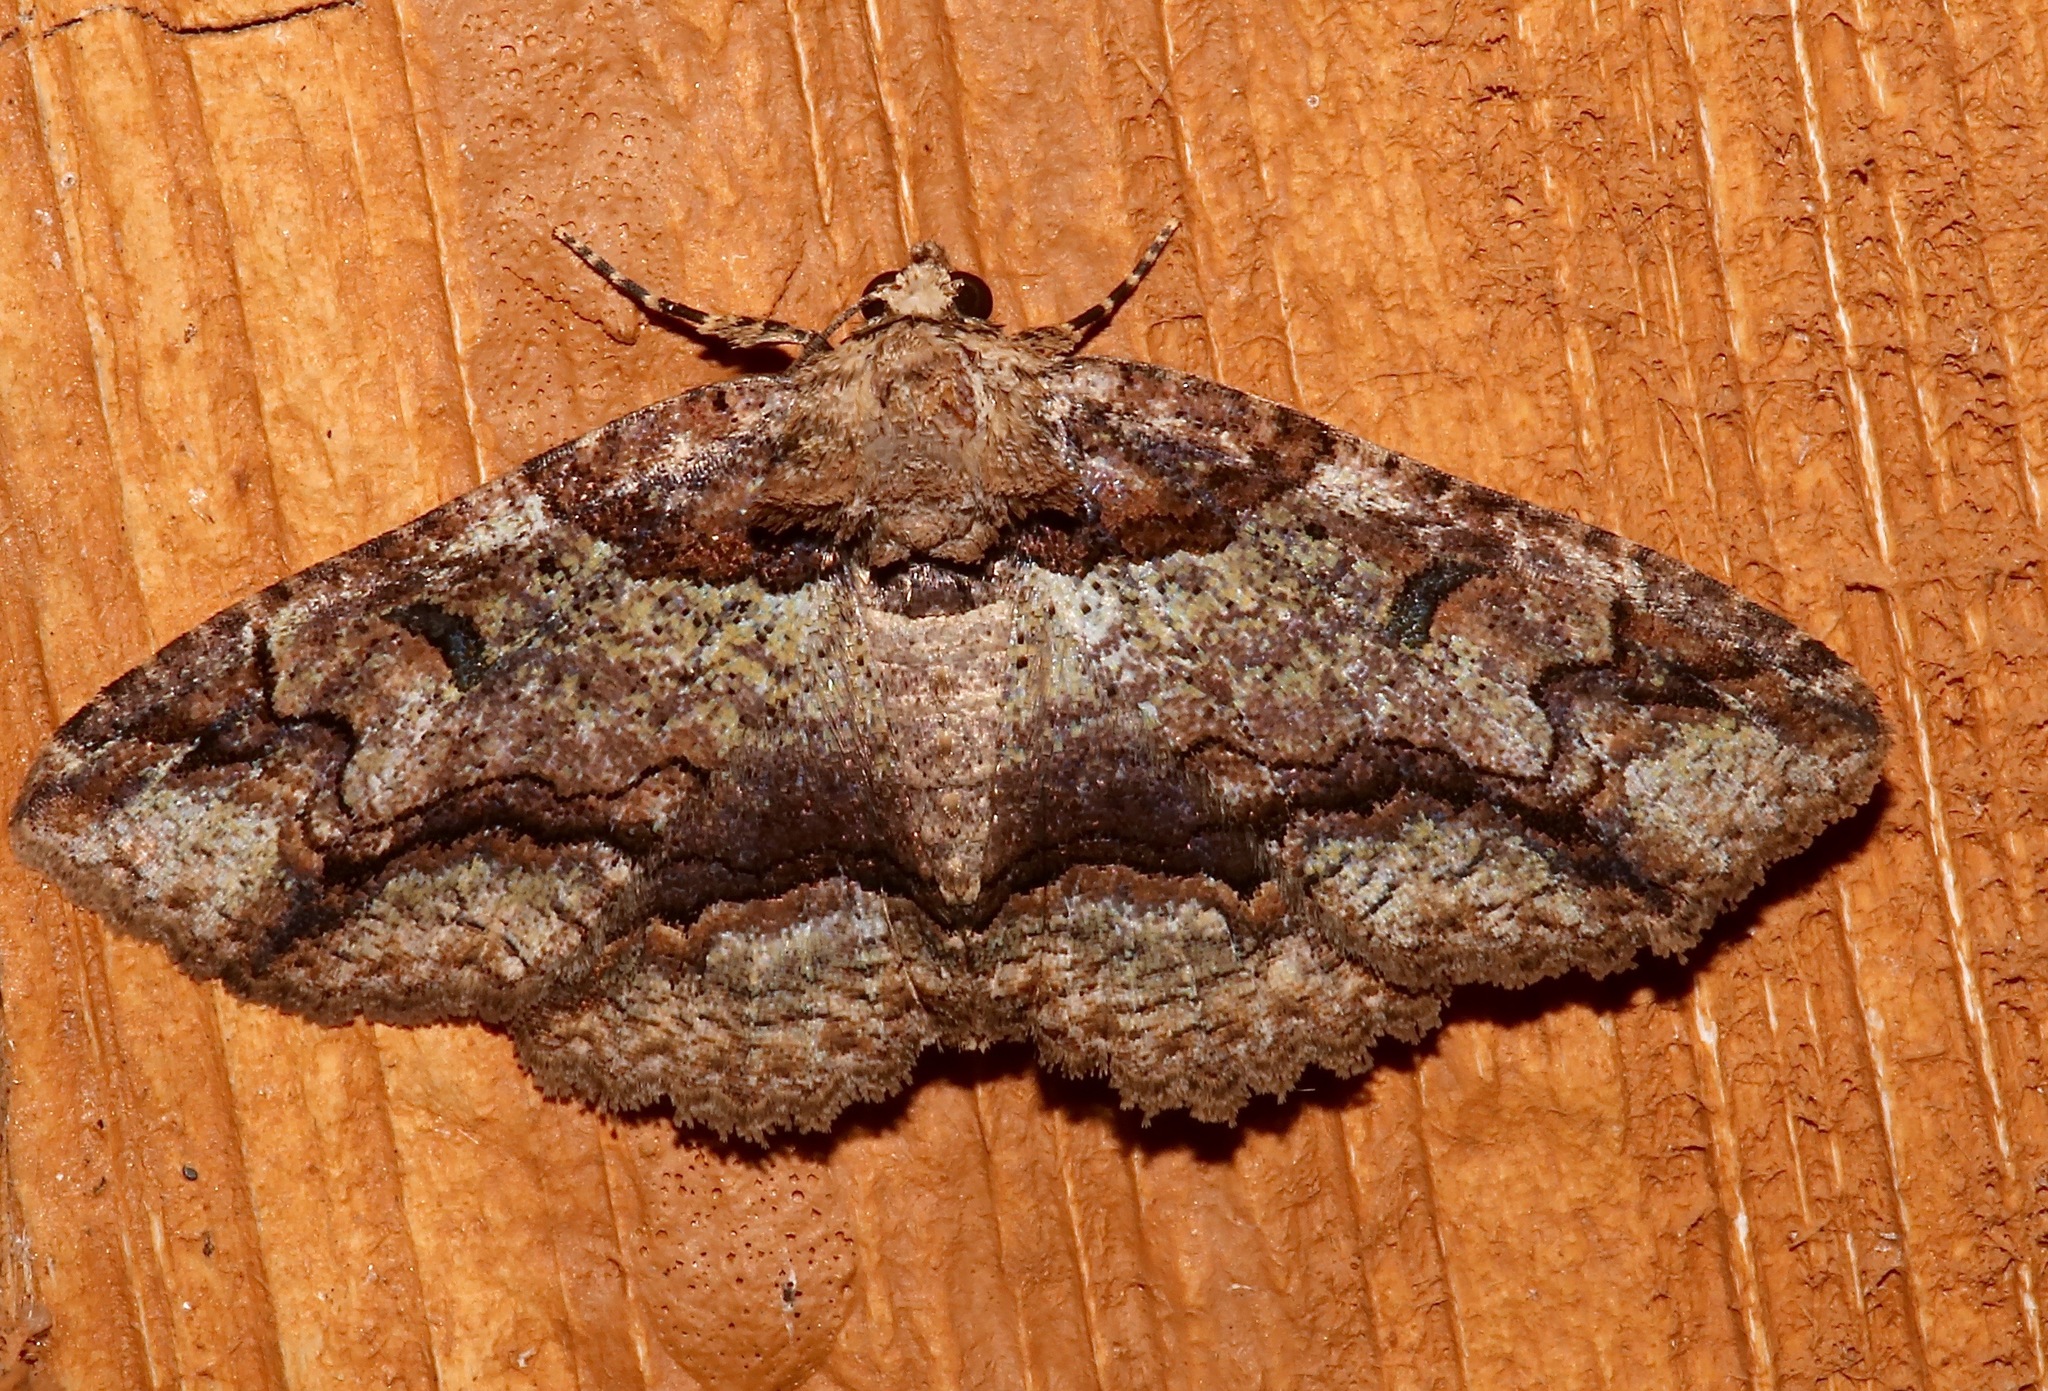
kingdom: Animalia
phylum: Arthropoda
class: Insecta
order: Lepidoptera
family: Erebidae
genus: Zale
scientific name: Zale galbanata
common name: Maple zale
